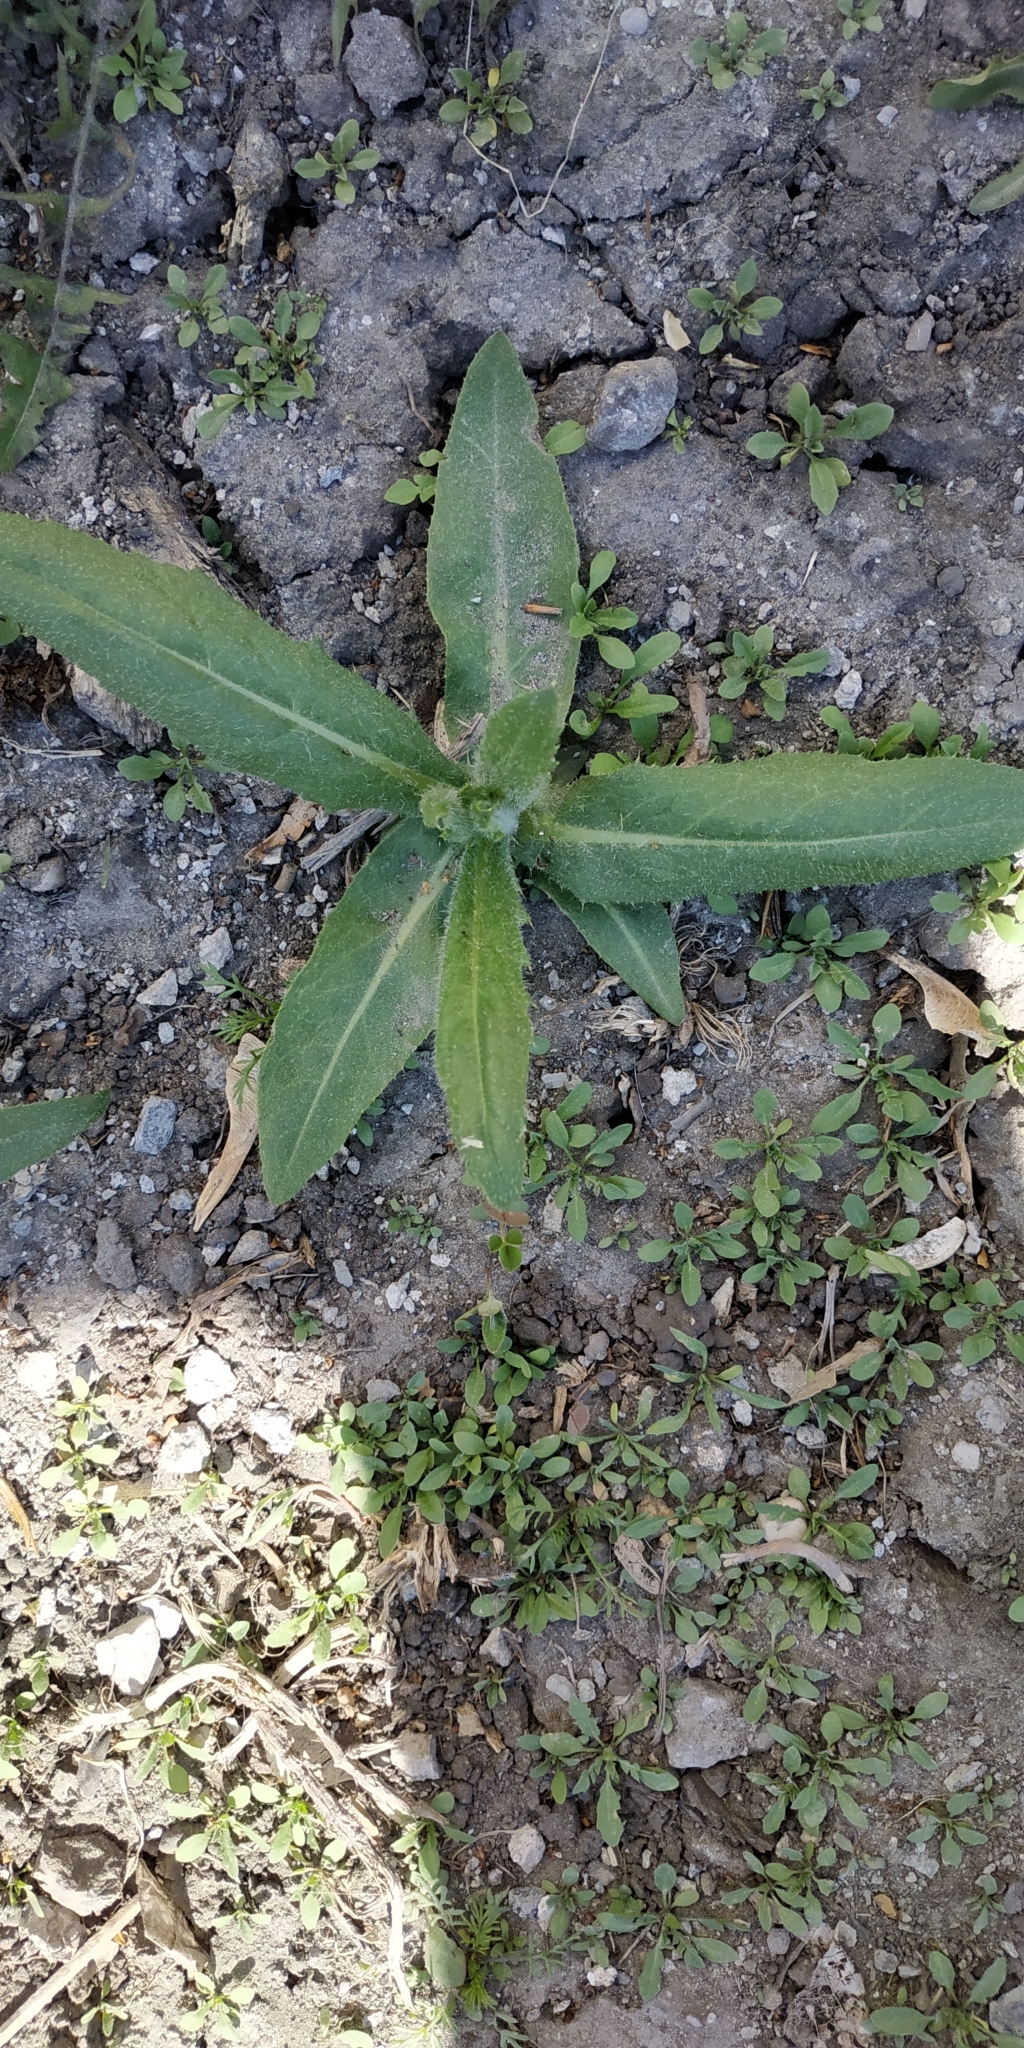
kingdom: Plantae
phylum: Tracheophyta
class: Magnoliopsida
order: Asterales
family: Asteraceae
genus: Cirsium
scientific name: Cirsium arvense
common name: Creeping thistle
